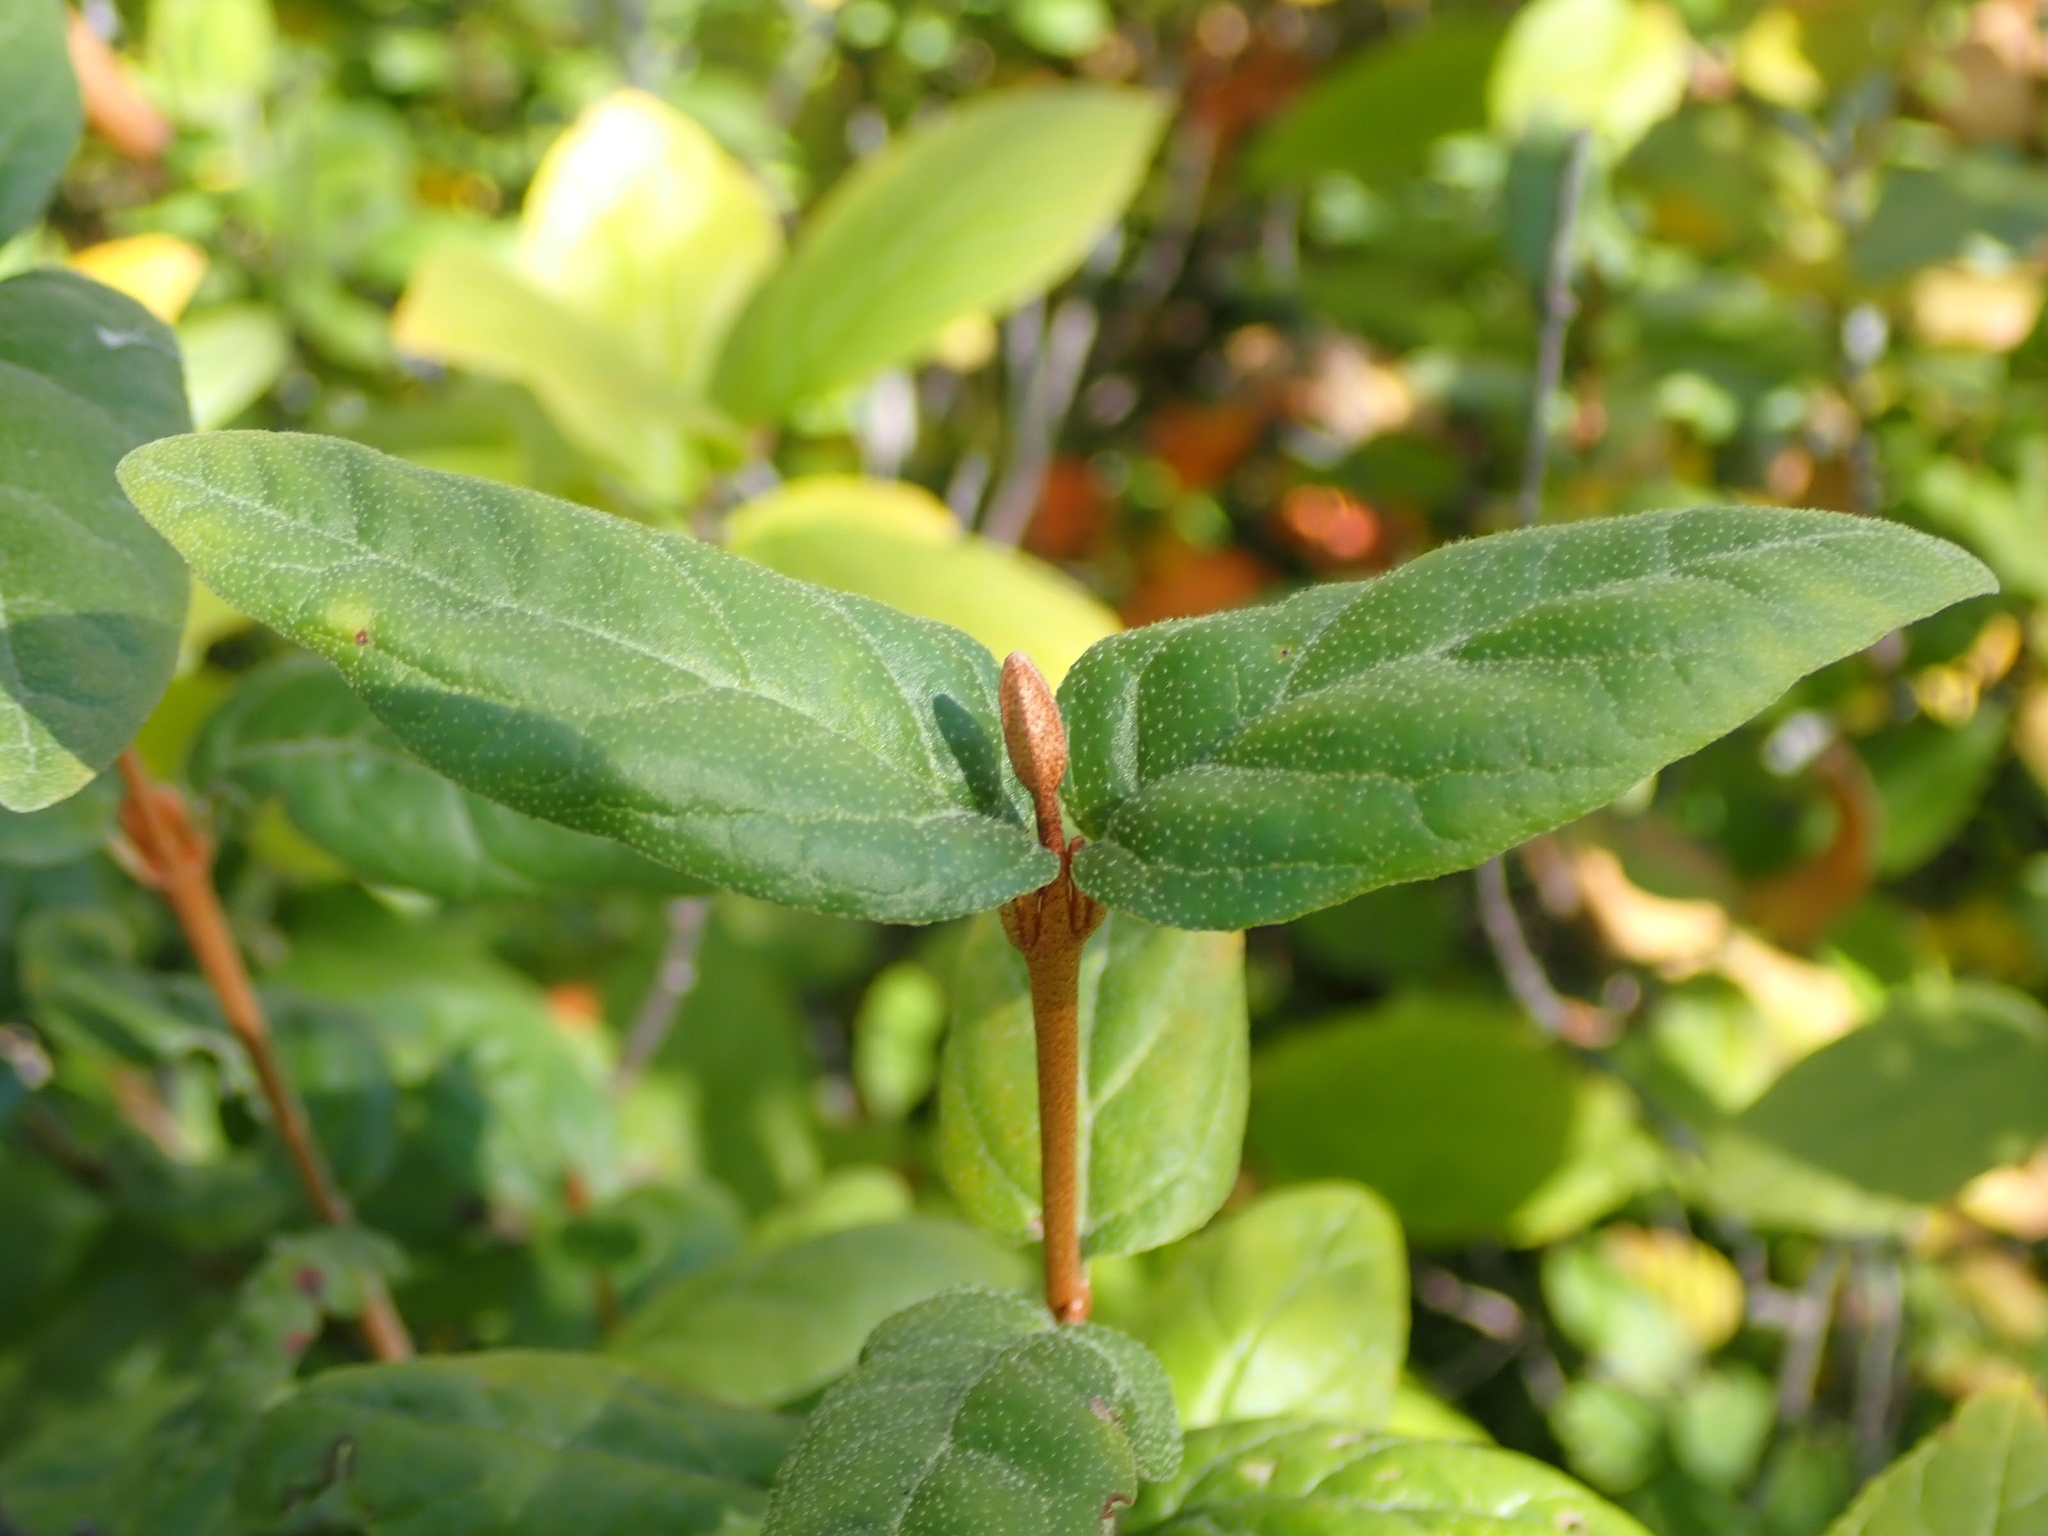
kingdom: Plantae
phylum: Tracheophyta
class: Magnoliopsida
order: Rosales
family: Elaeagnaceae
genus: Shepherdia
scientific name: Shepherdia canadensis
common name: Soapberry
